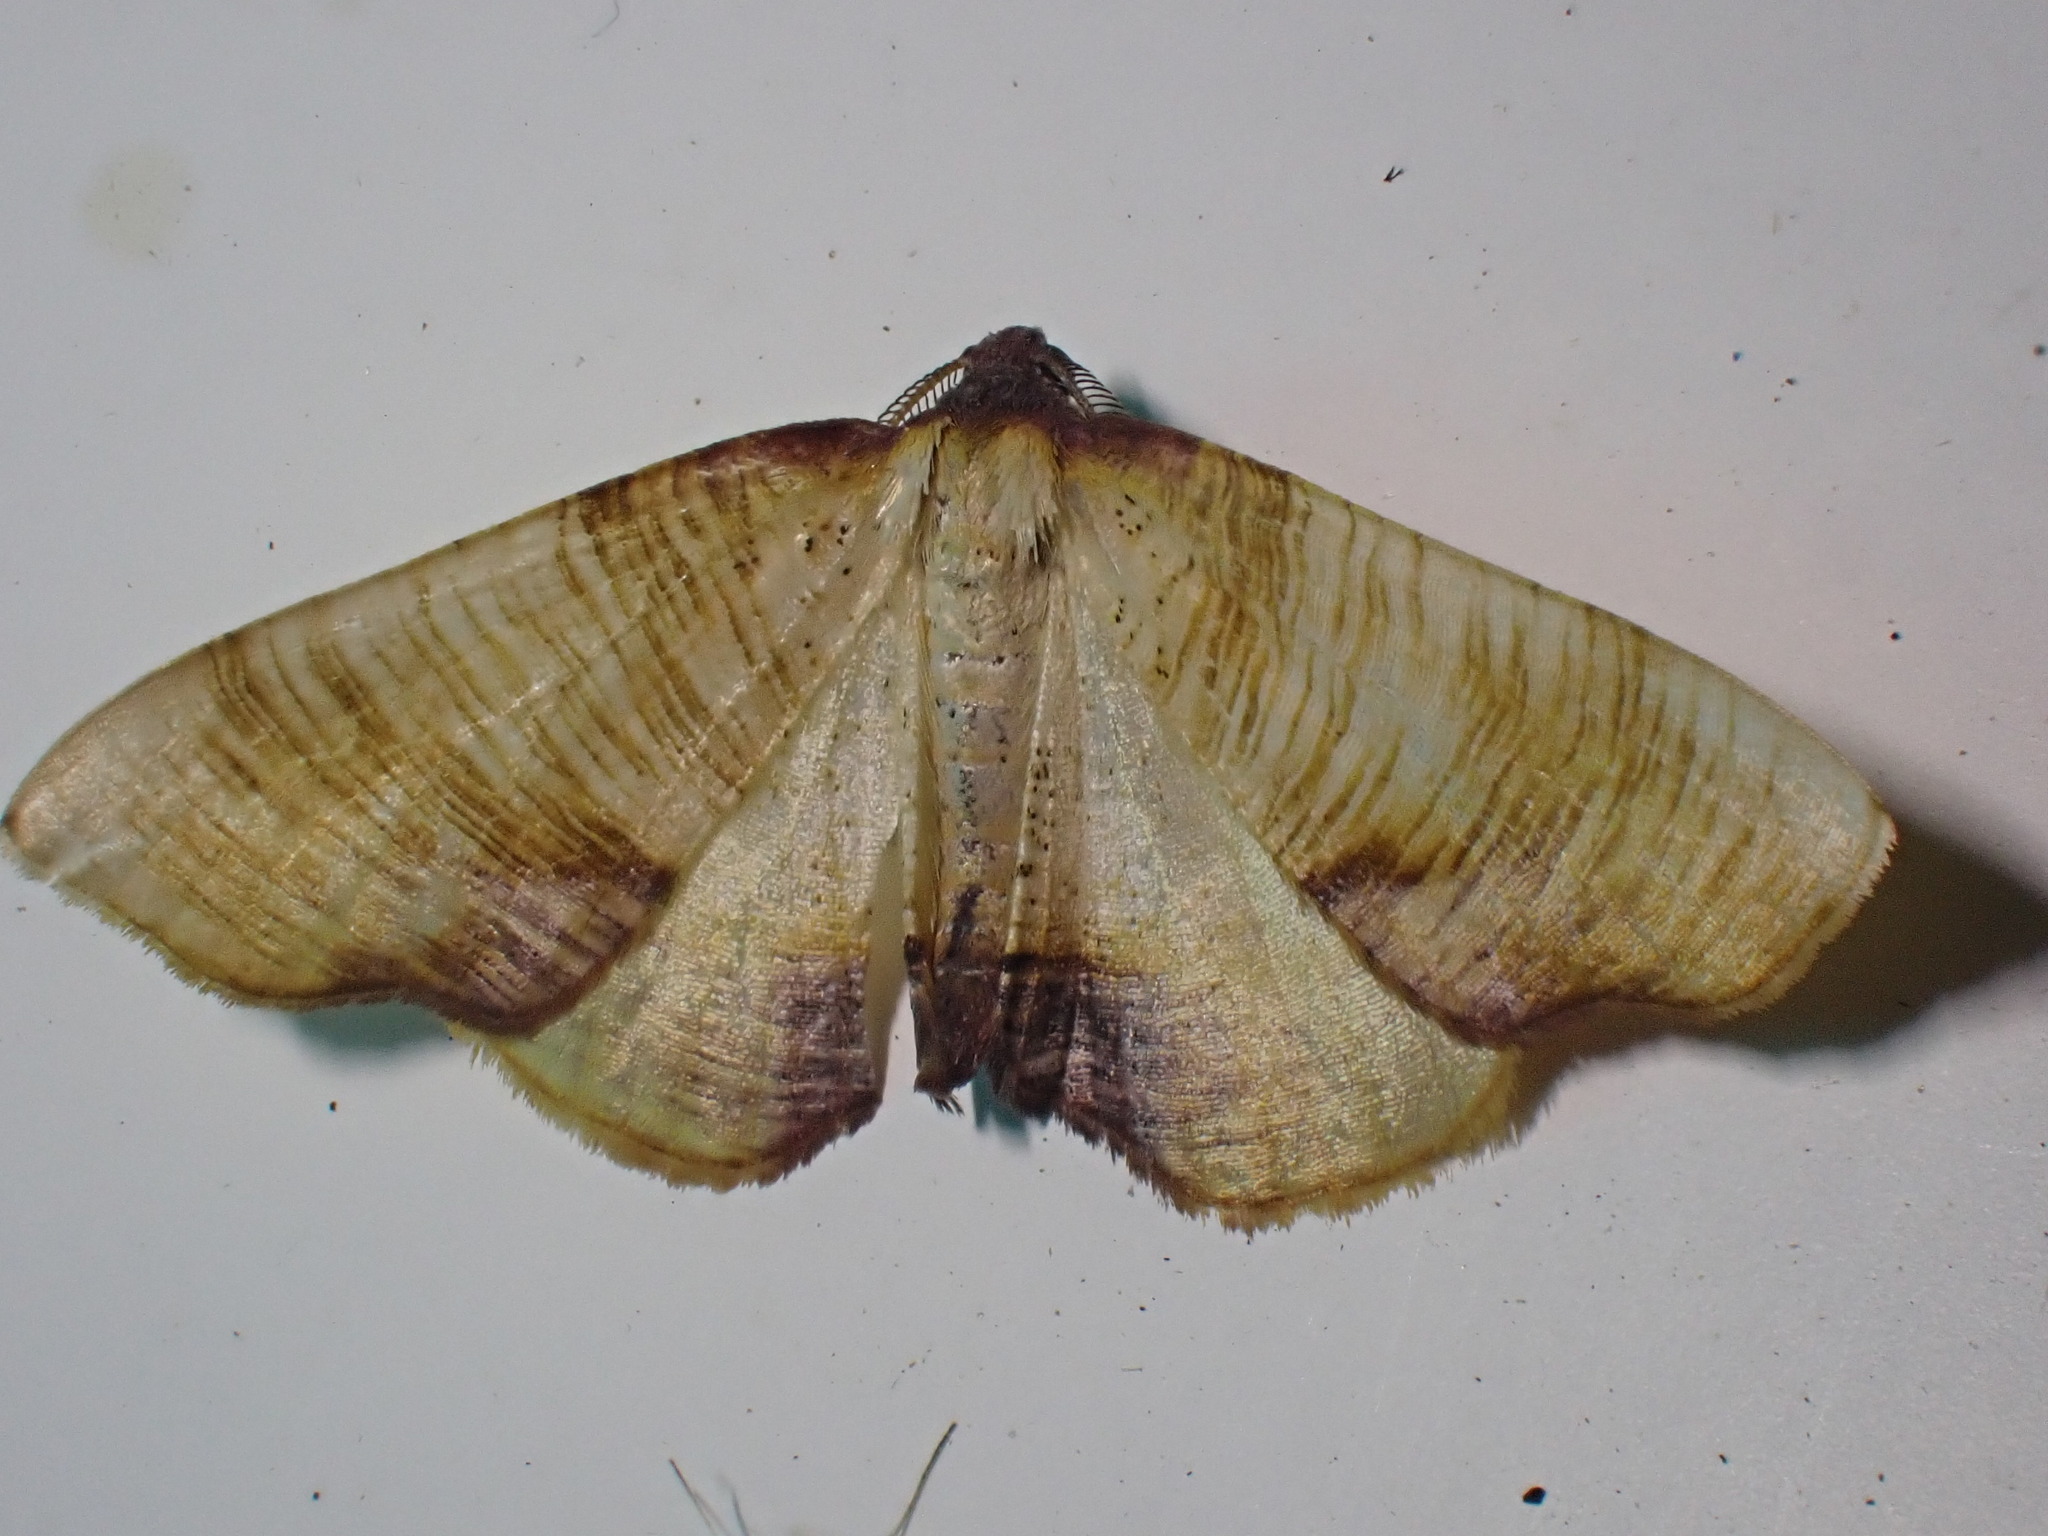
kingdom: Animalia
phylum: Arthropoda
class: Insecta
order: Lepidoptera
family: Geometridae
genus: Plagodis
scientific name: Plagodis dolabraria
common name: Scorched wing
